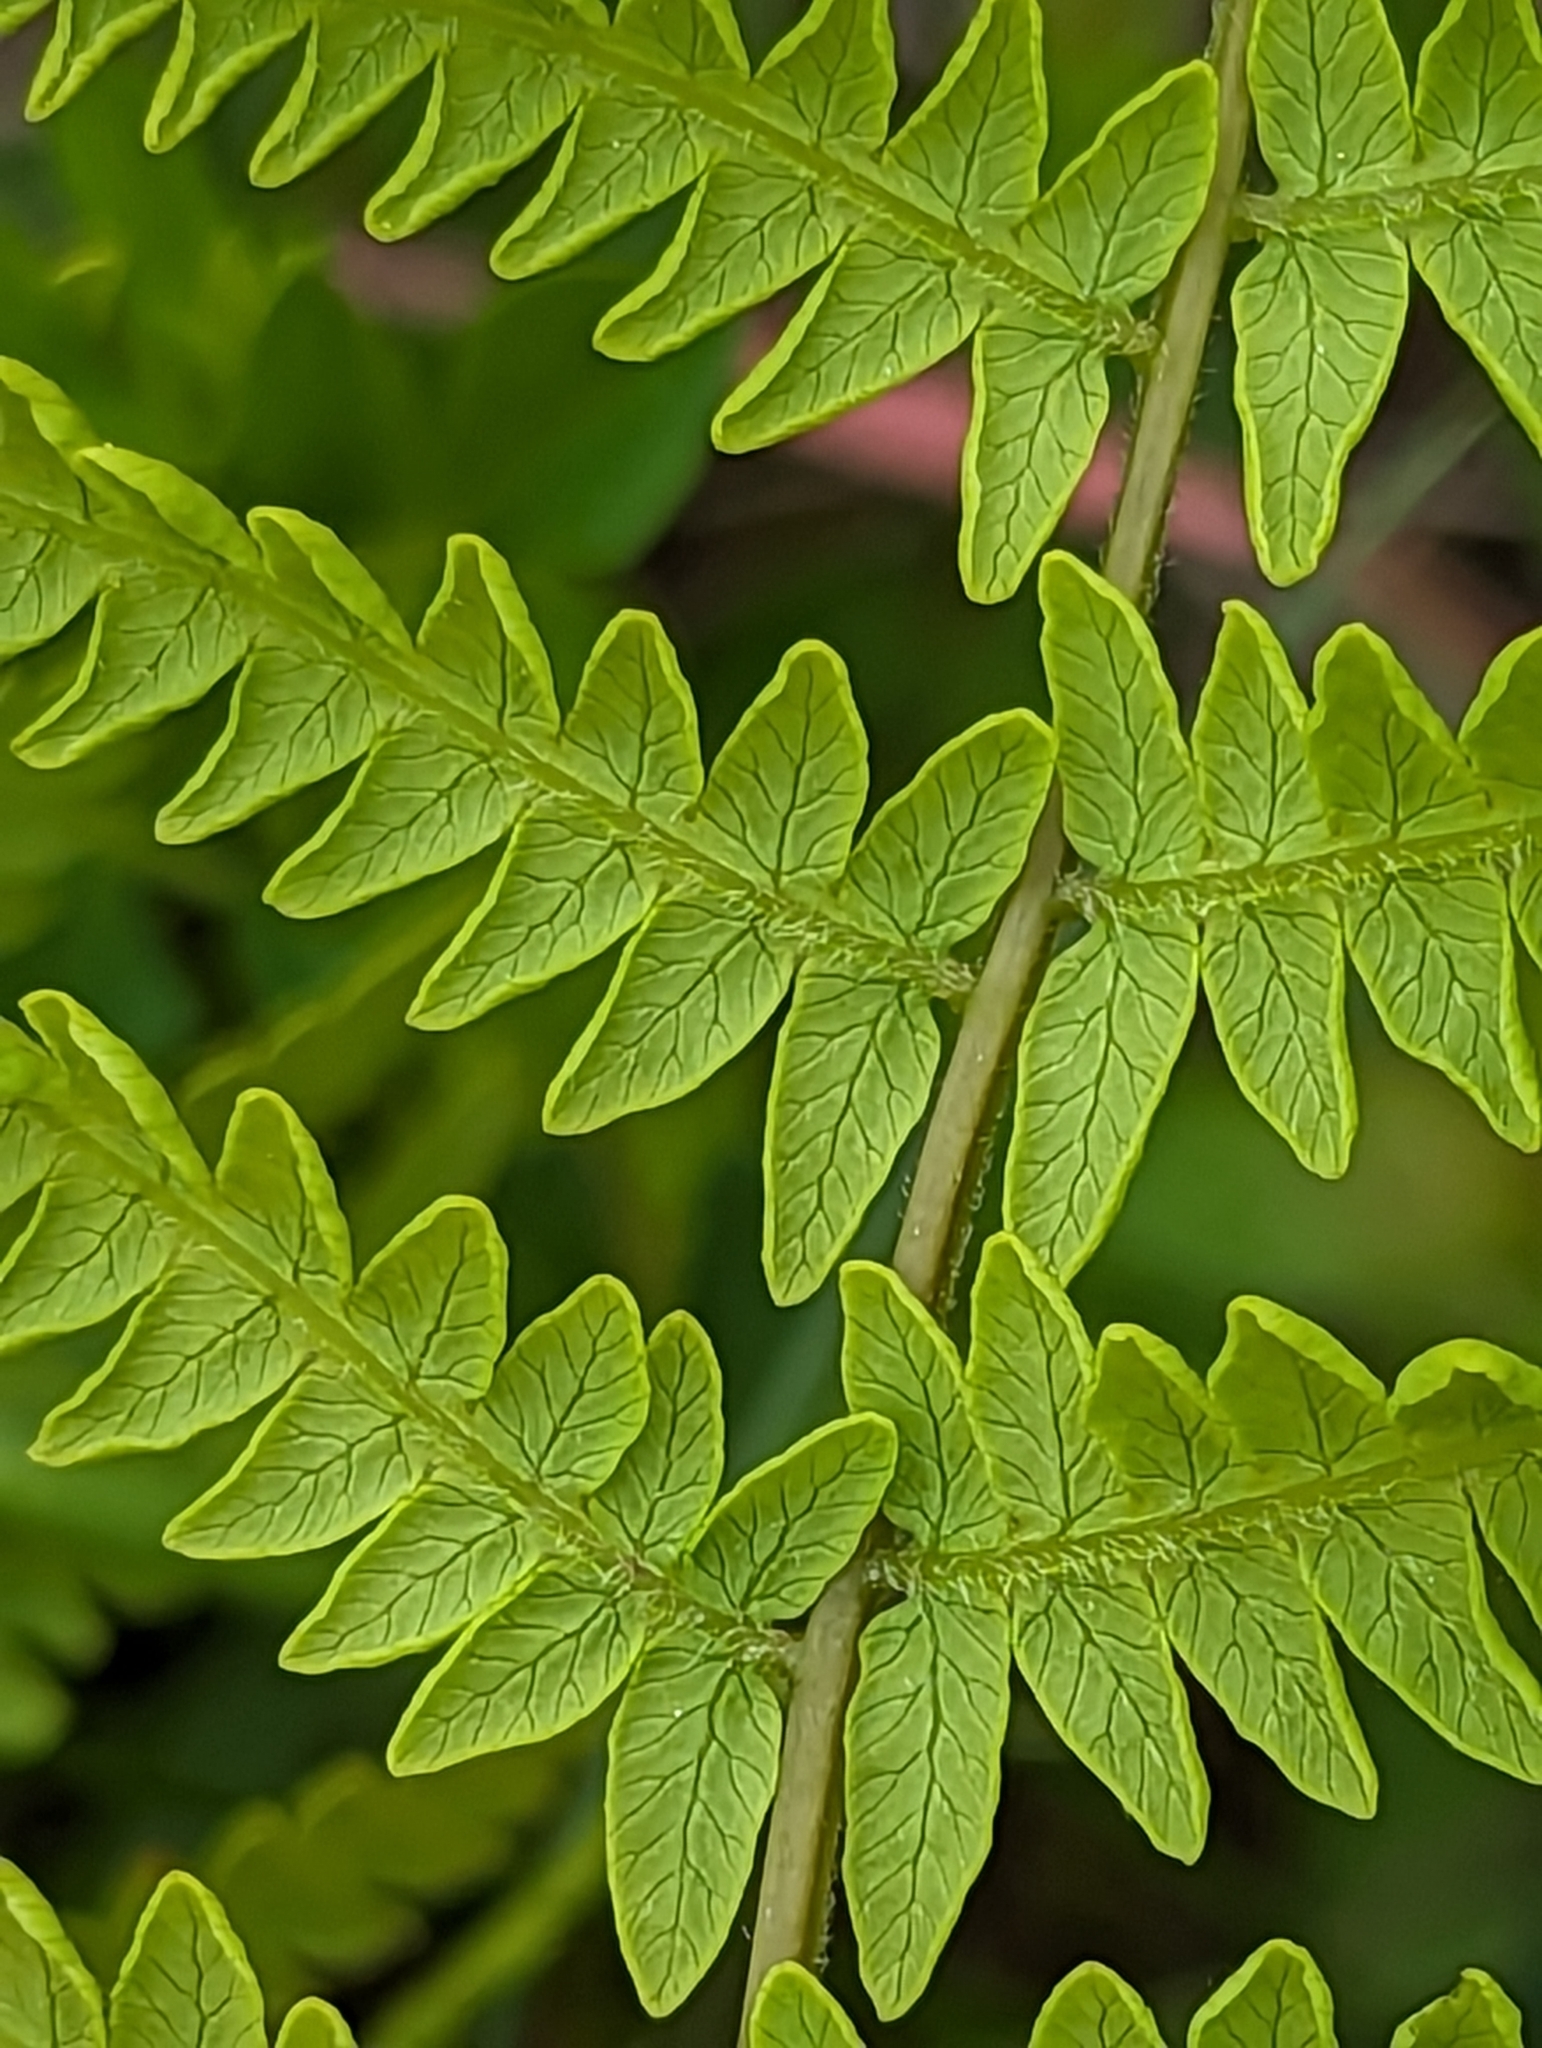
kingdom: Plantae
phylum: Tracheophyta
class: Polypodiopsida
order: Polypodiales
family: Thelypteridaceae
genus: Thelypteris
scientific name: Thelypteris palustris
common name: Marsh fern
